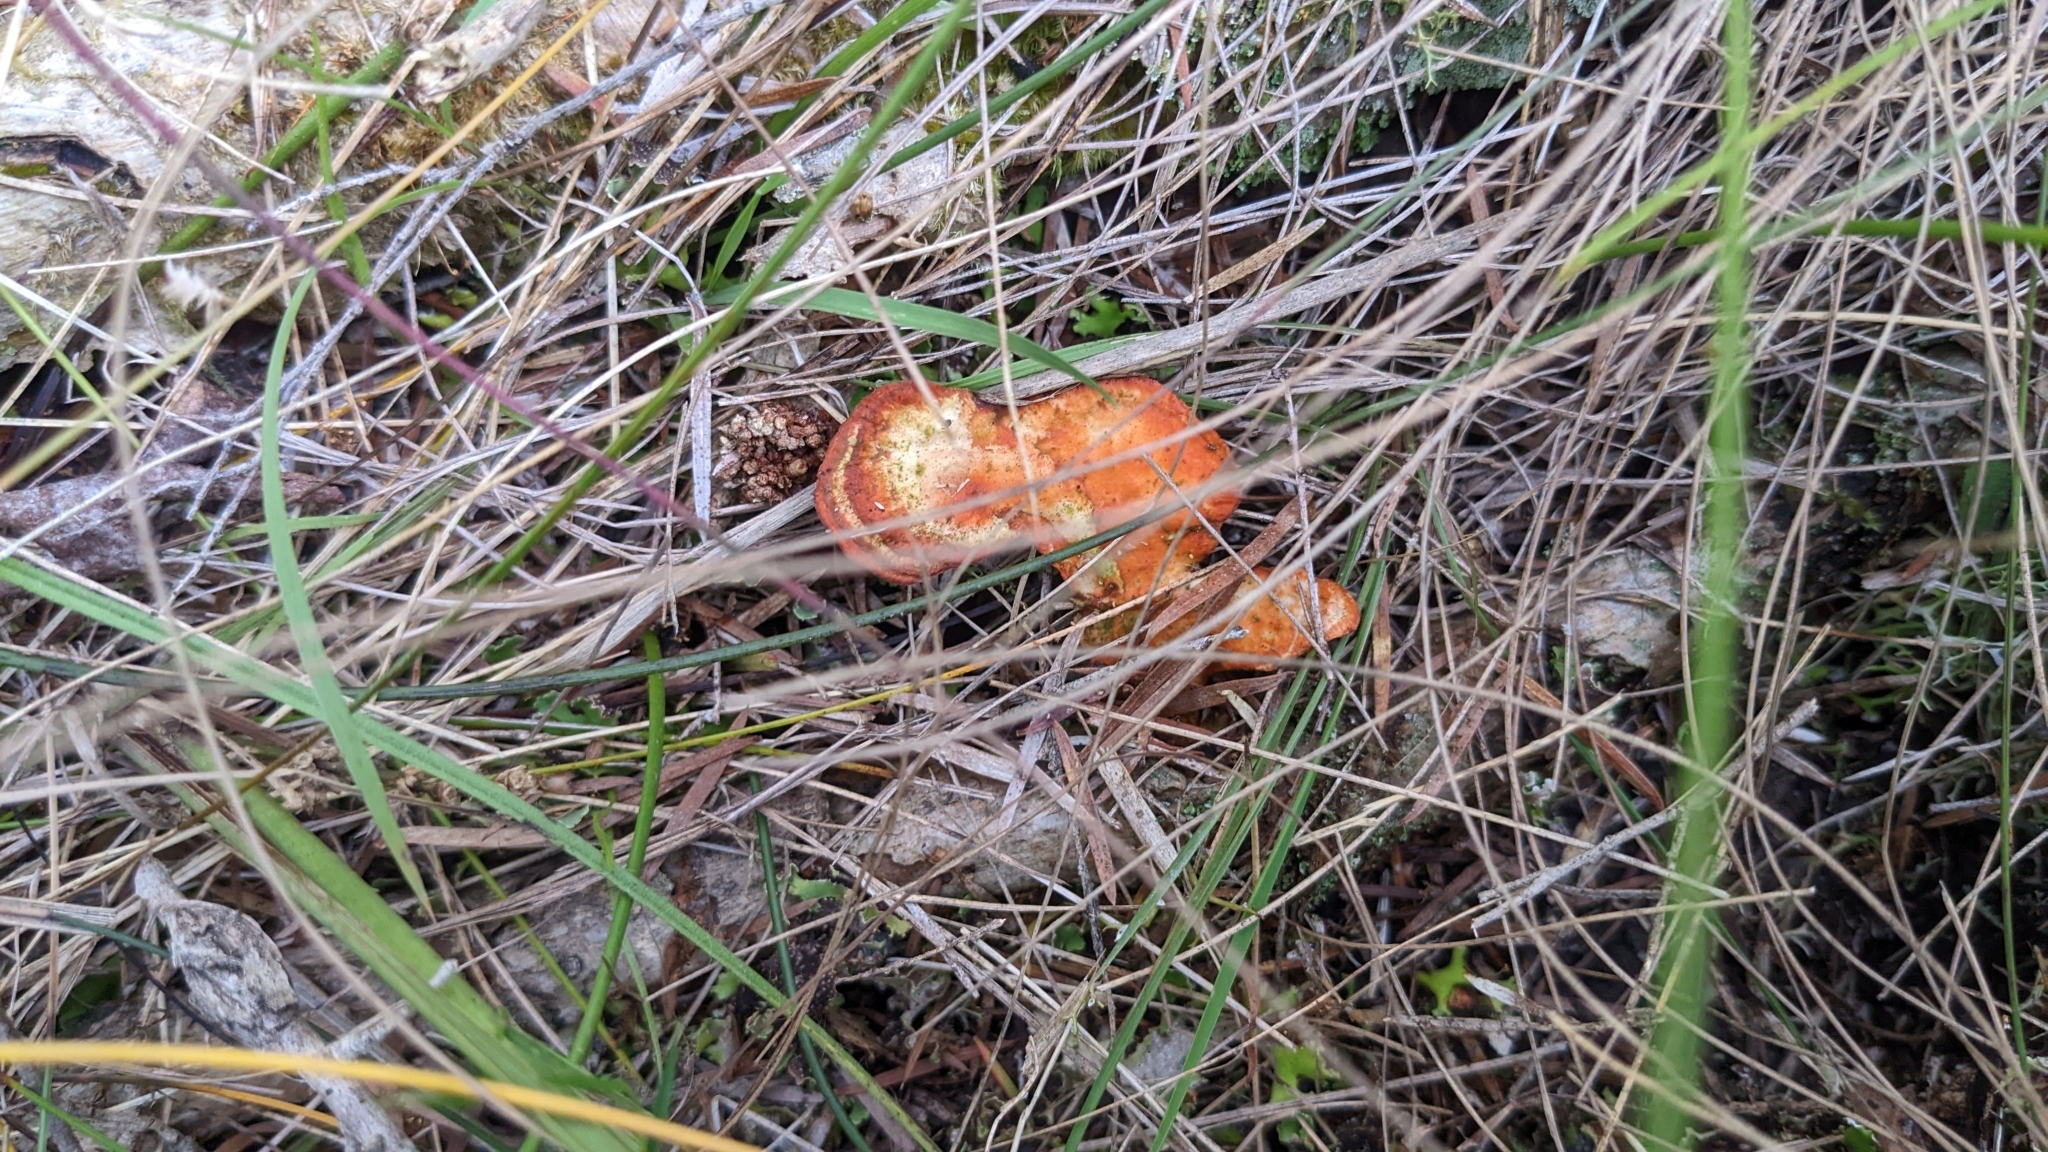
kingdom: Fungi
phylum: Basidiomycota
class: Agaricomycetes
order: Polyporales
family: Polyporaceae
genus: Trametes
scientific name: Trametes coccinea
